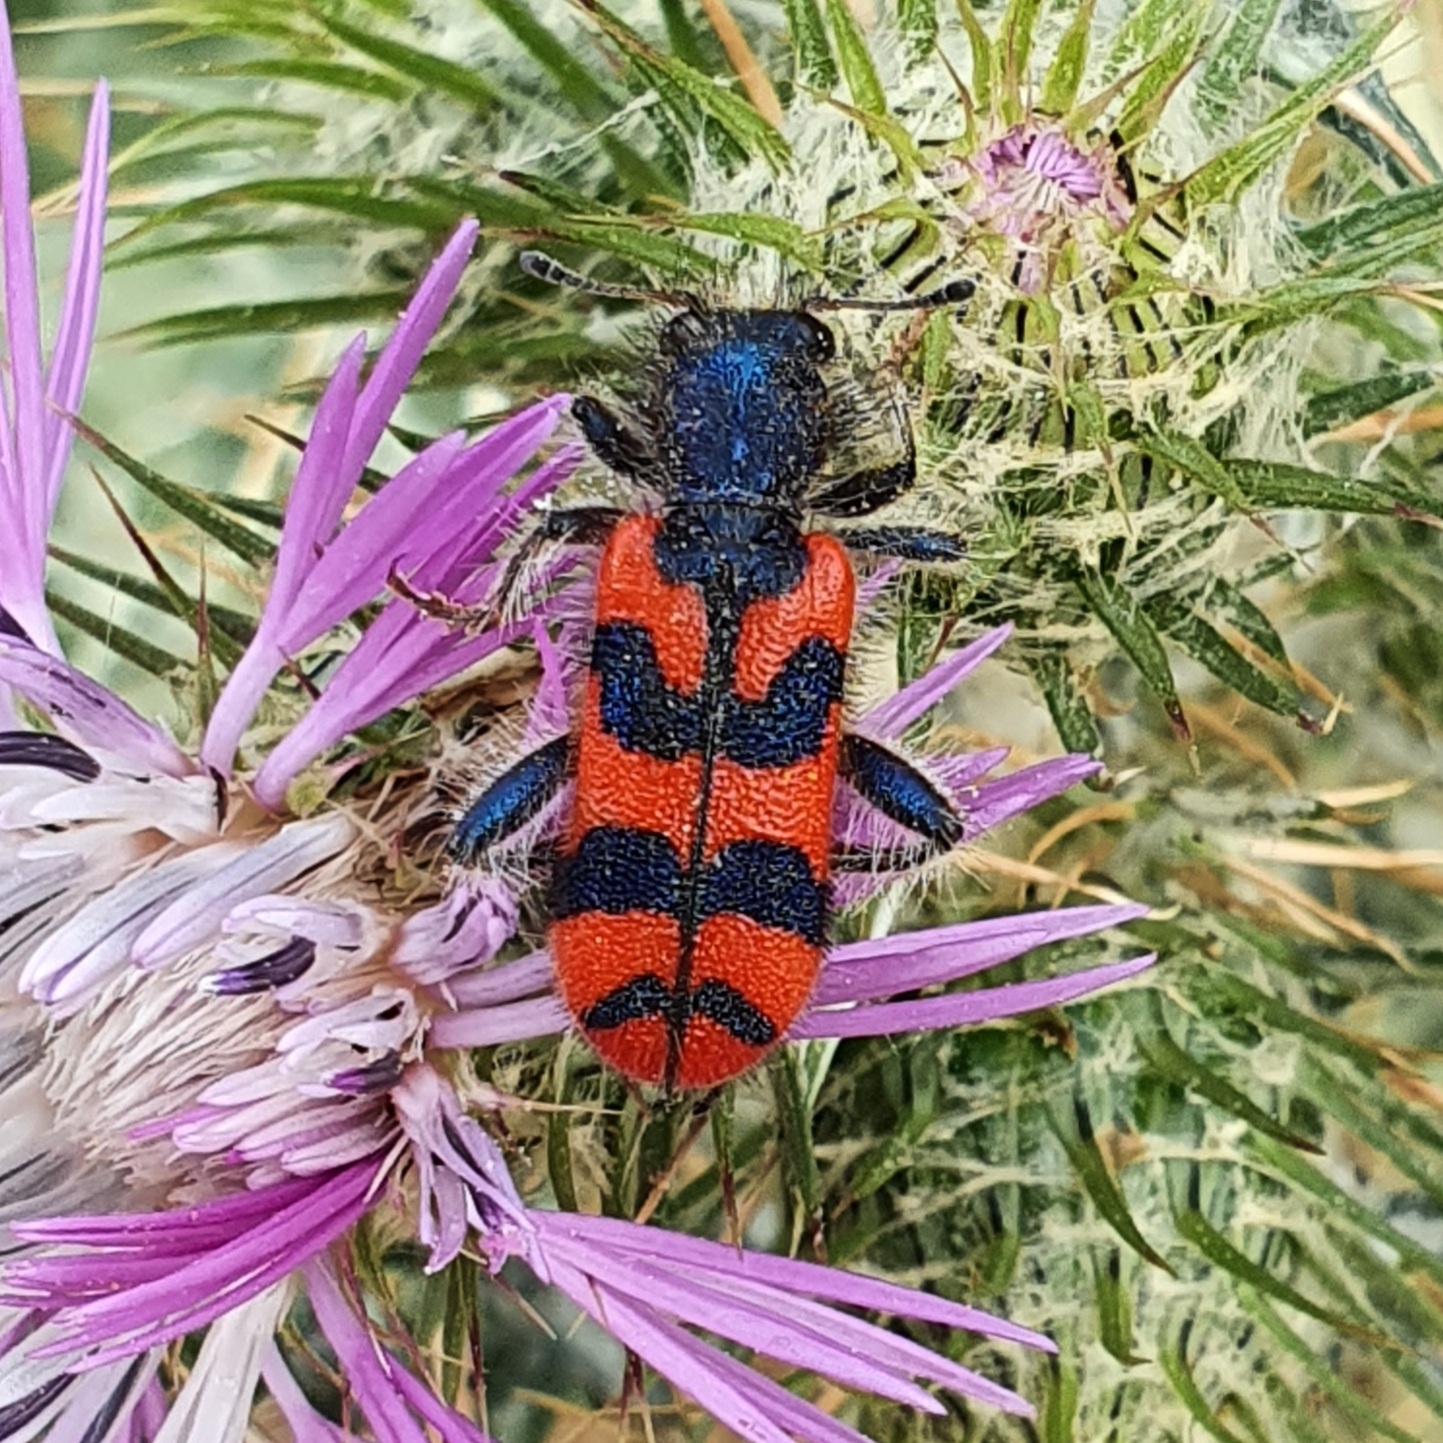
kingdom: Animalia
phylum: Arthropoda
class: Insecta
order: Coleoptera
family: Cleridae
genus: Trichodes
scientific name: Trichodes umbellatarum
